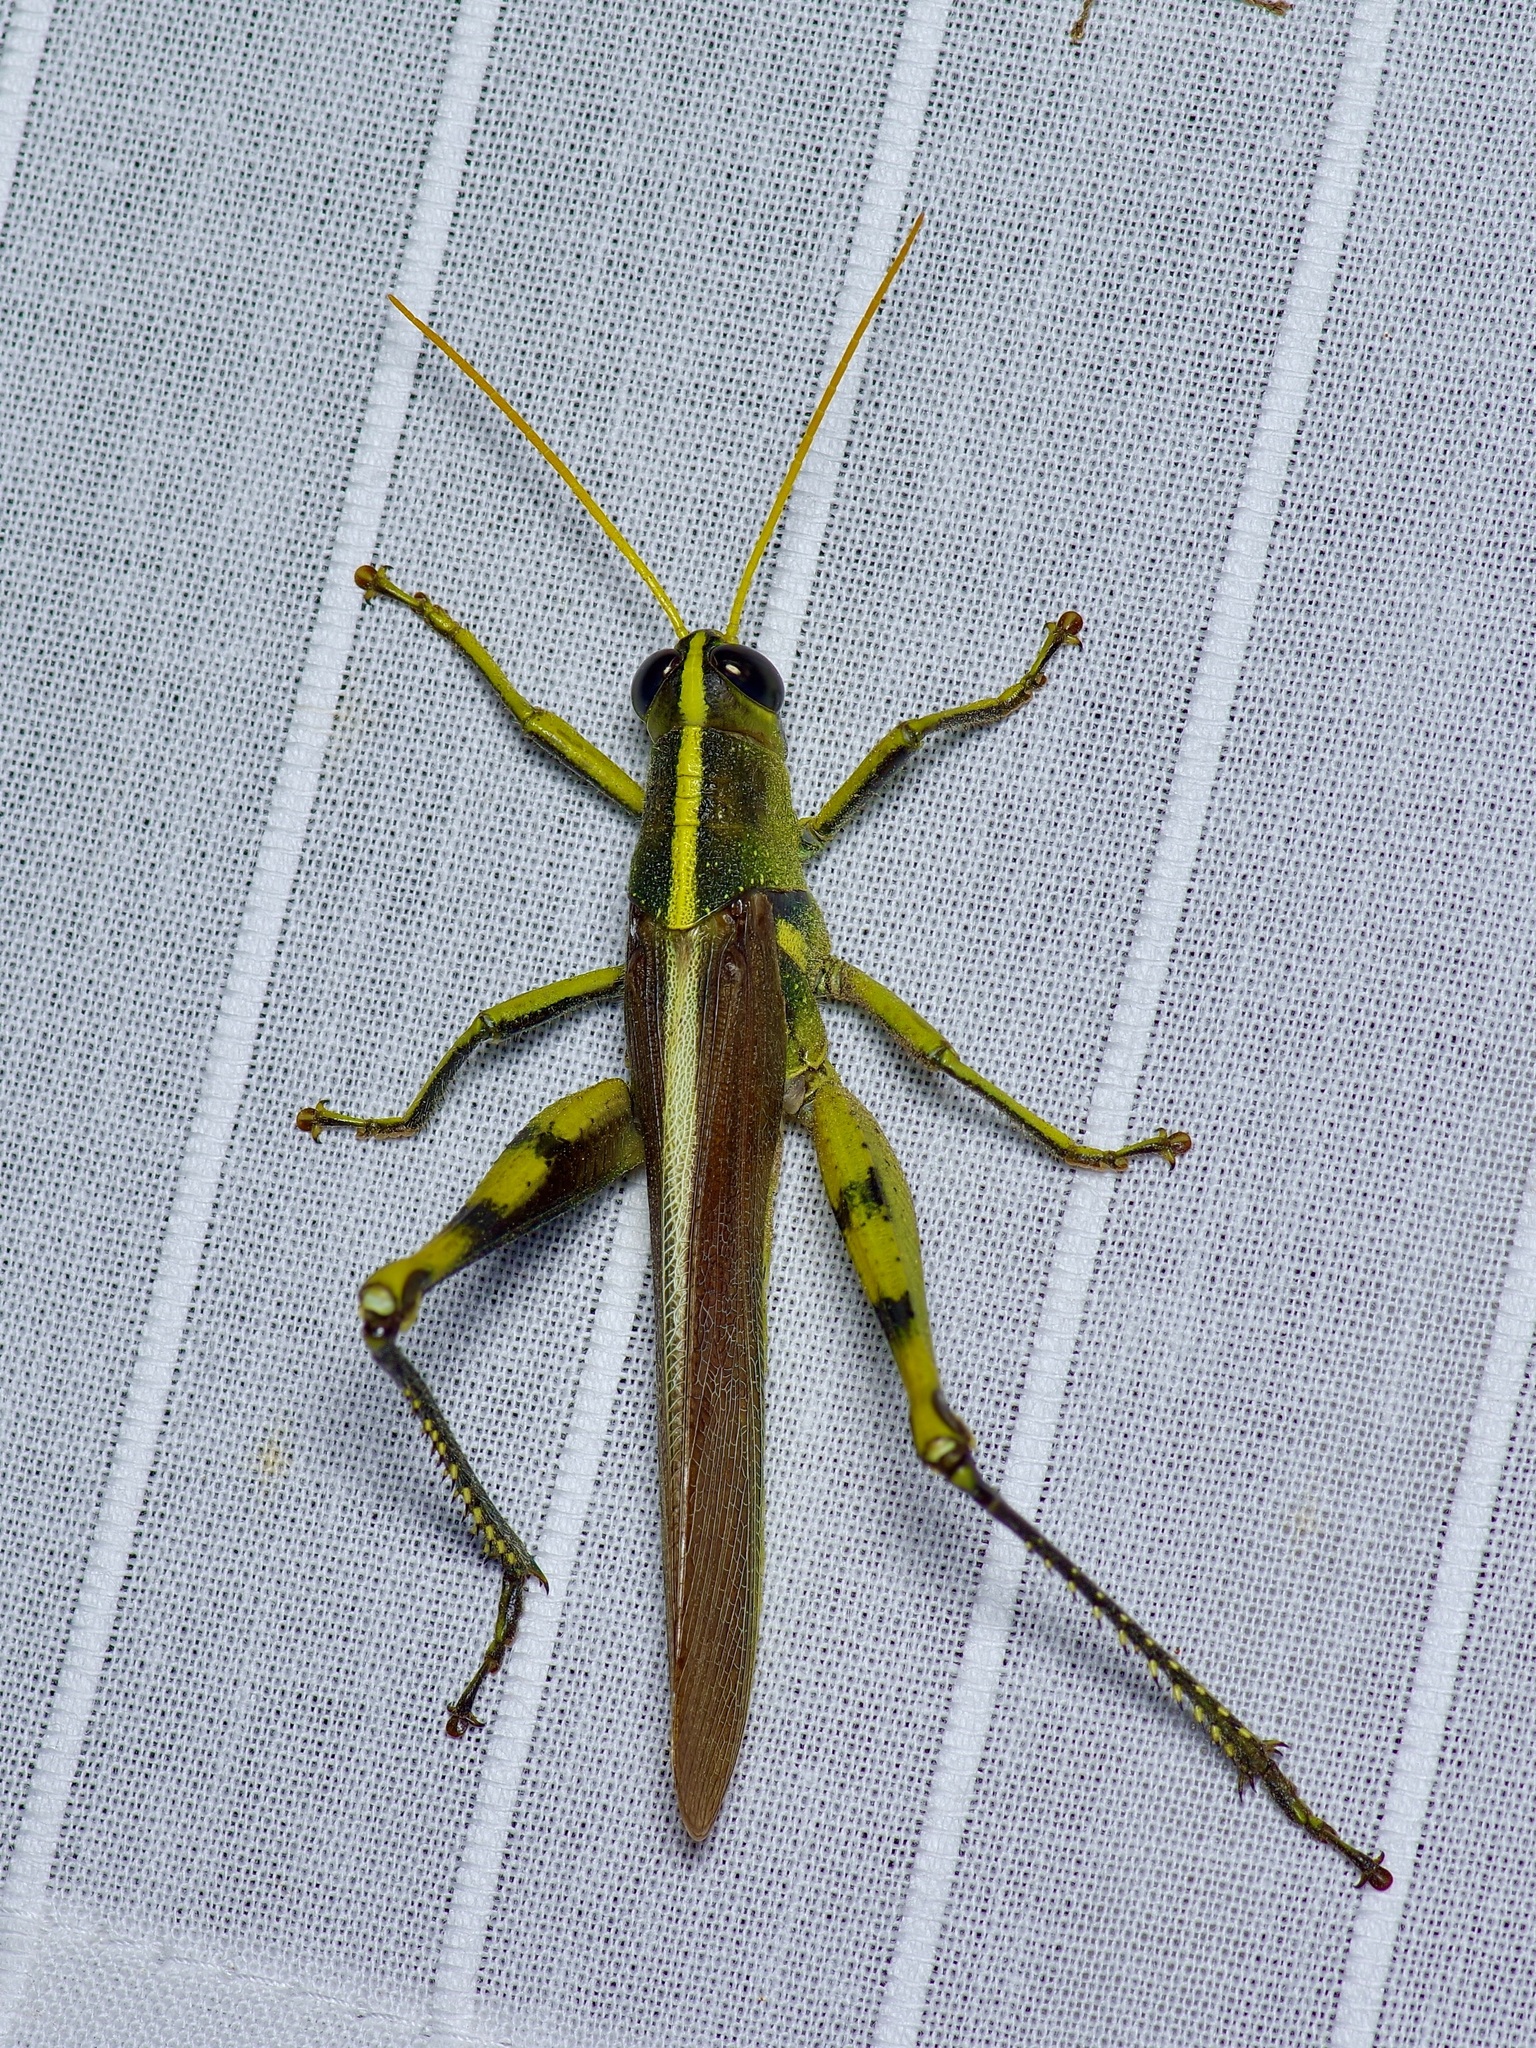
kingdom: Animalia
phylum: Arthropoda
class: Insecta
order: Orthoptera
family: Acrididae
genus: Schistocerca
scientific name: Schistocerca obscura
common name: Obscure bird grasshopper
